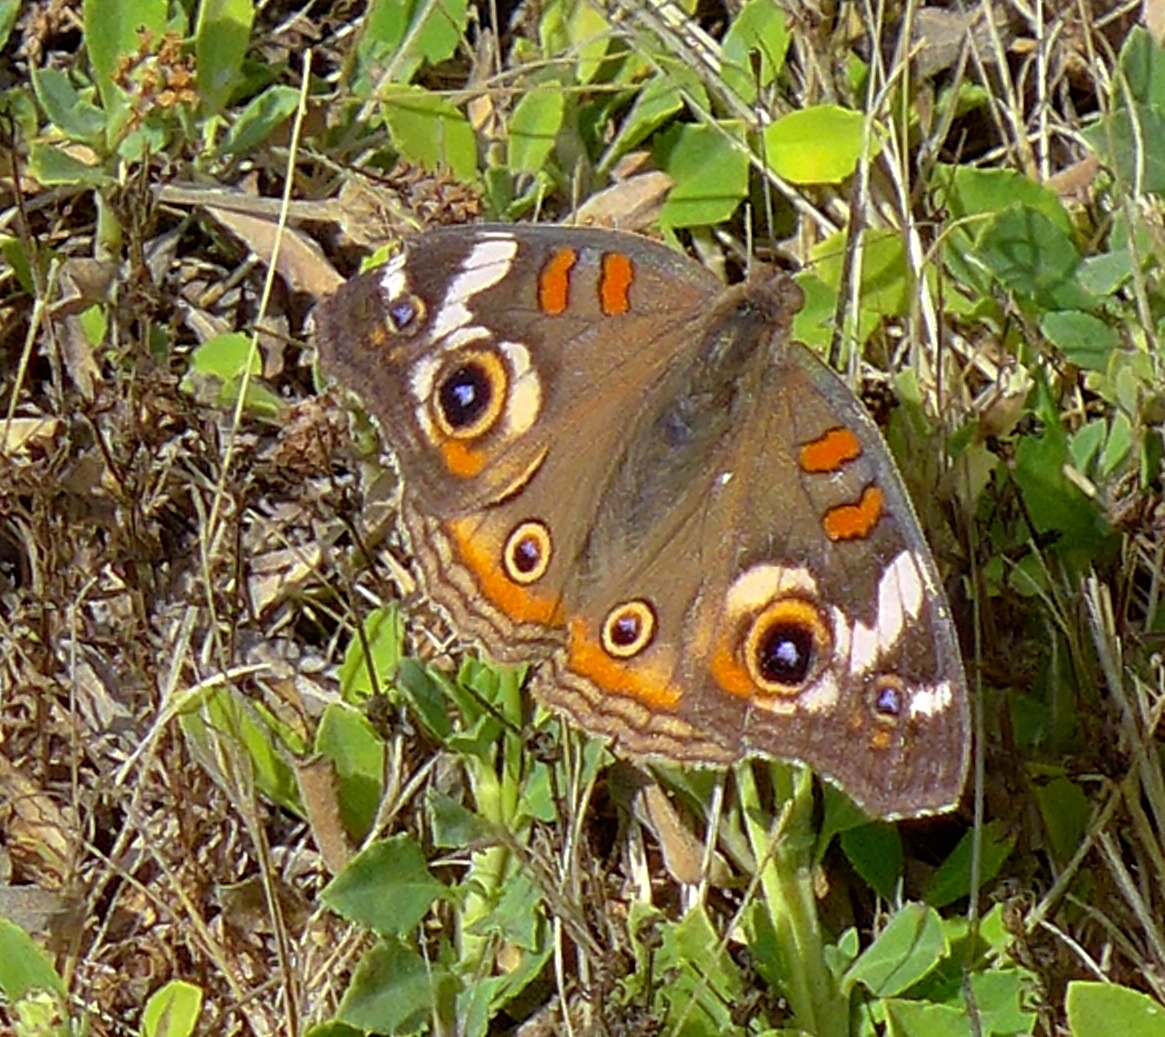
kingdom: Animalia
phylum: Arthropoda
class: Insecta
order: Lepidoptera
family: Nymphalidae
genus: Junonia
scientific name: Junonia grisea
